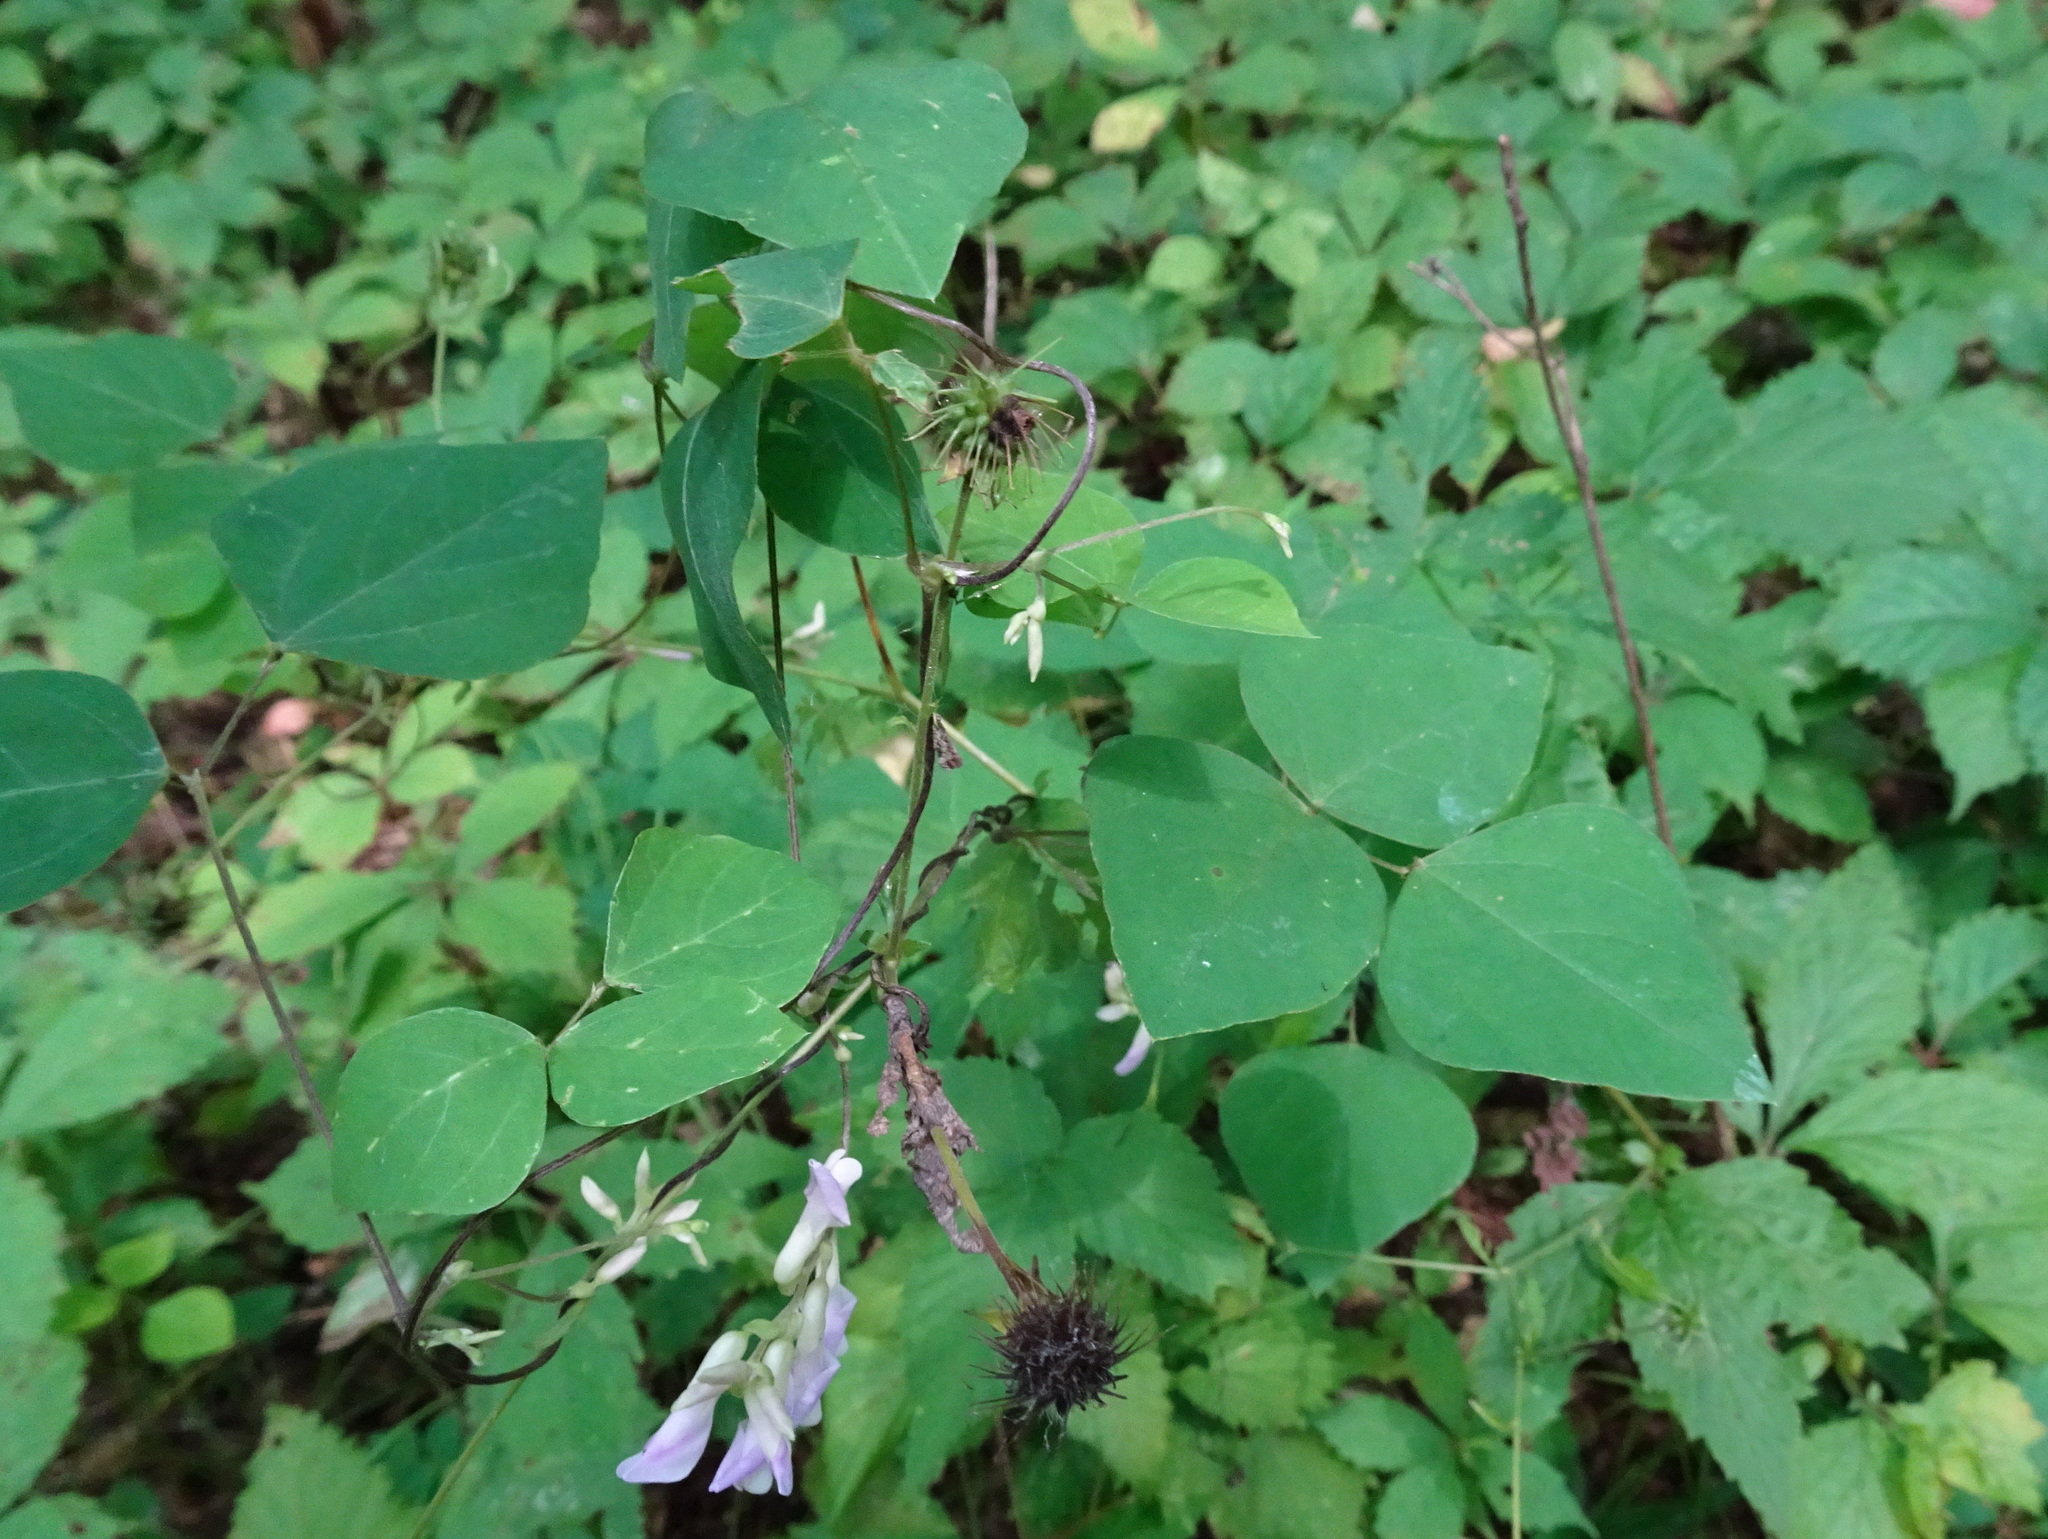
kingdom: Plantae
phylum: Tracheophyta
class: Magnoliopsida
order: Fabales
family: Fabaceae
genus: Amphicarpaea
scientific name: Amphicarpaea bracteata
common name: American hog peanut
